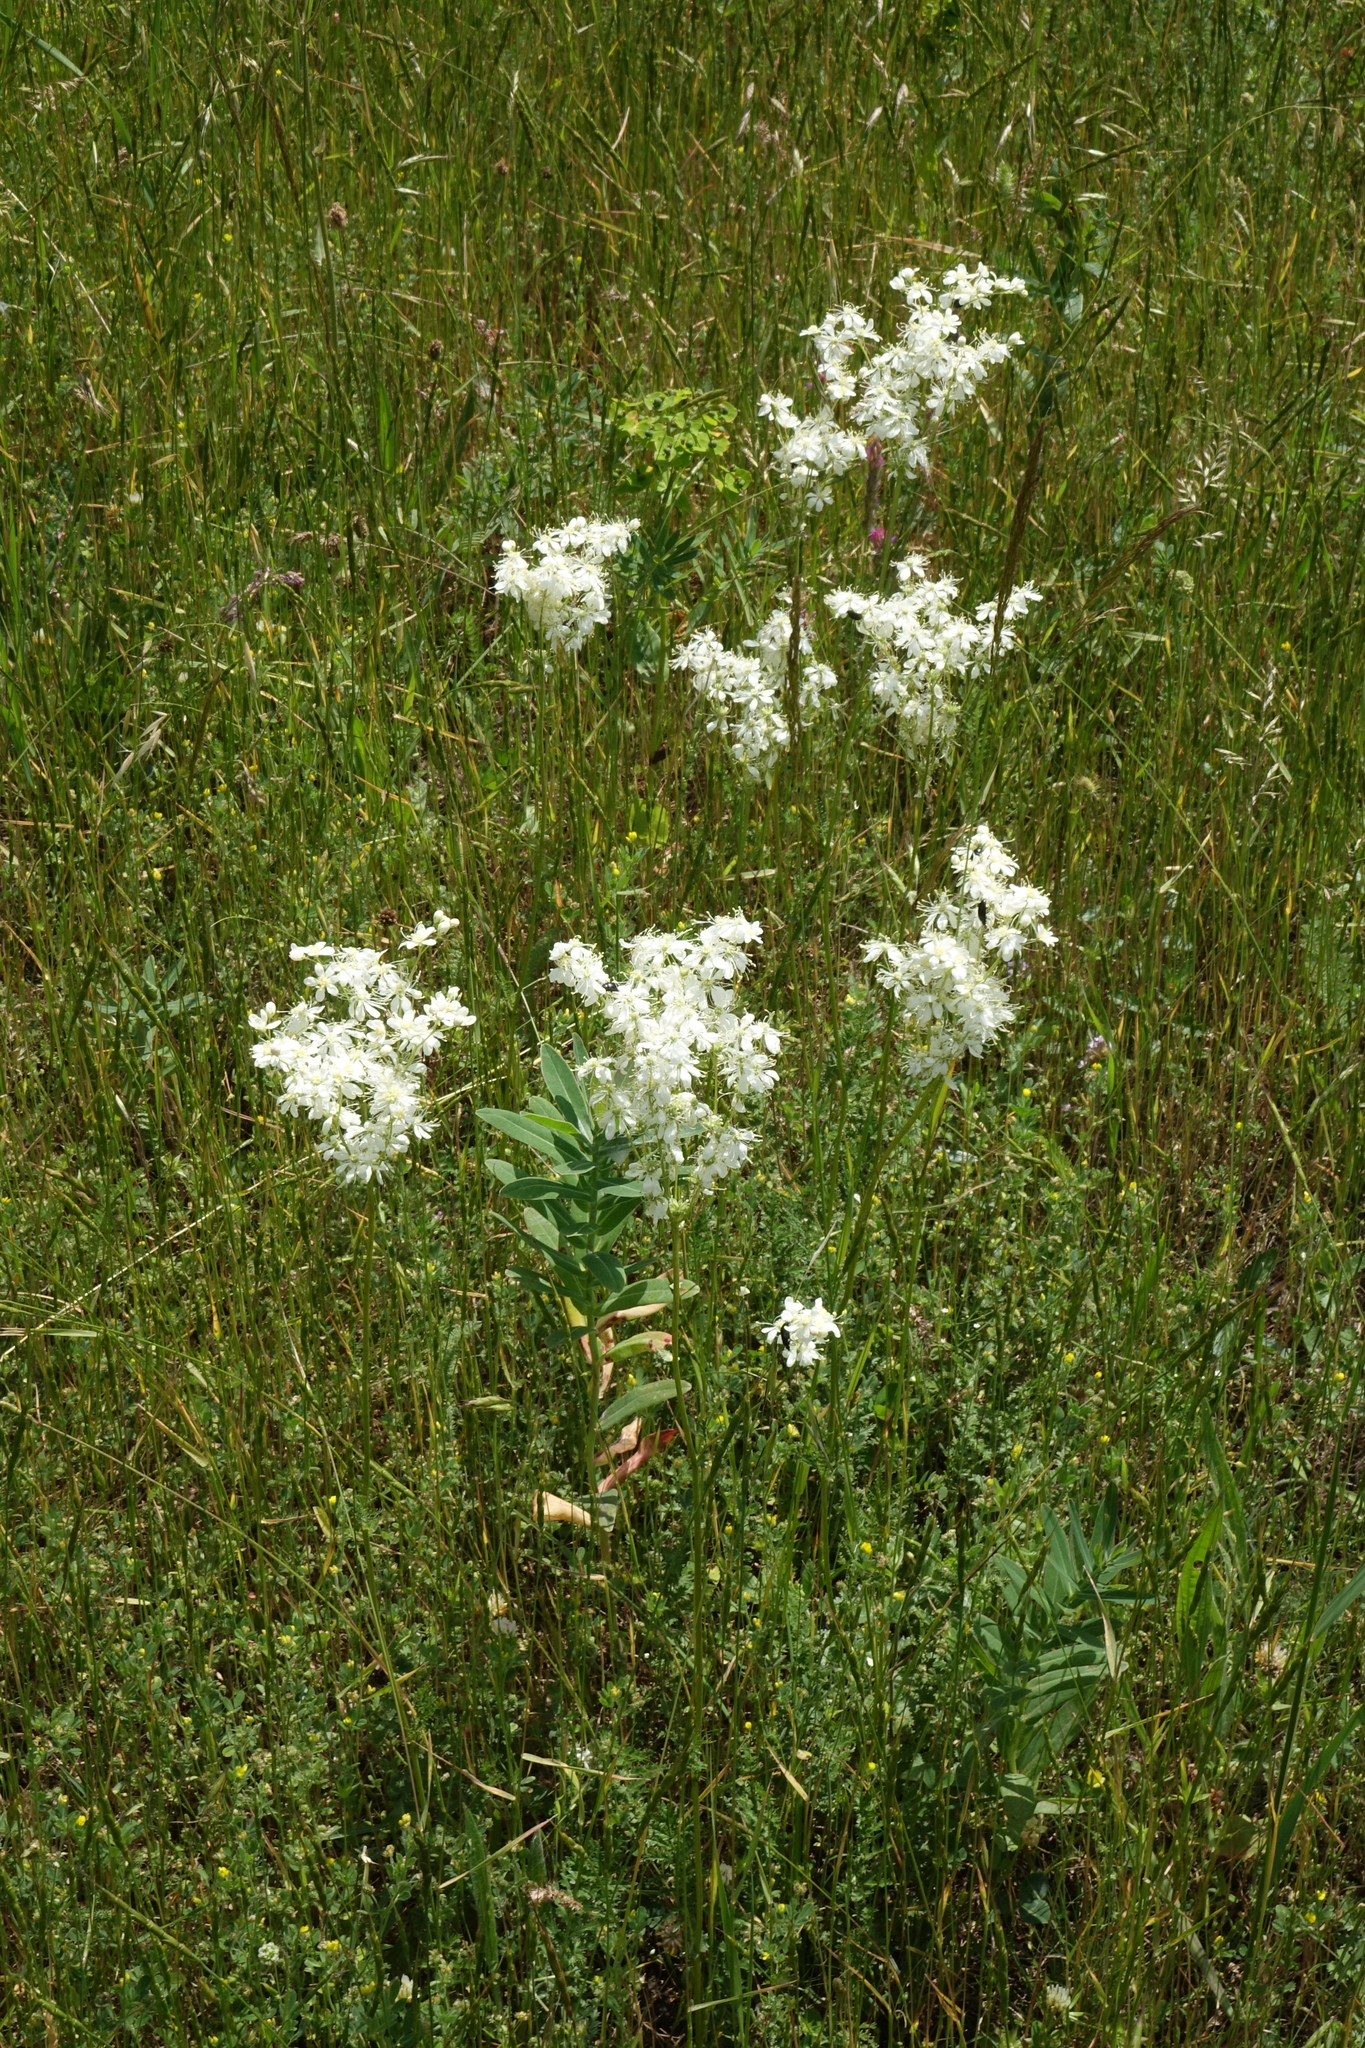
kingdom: Plantae
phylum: Tracheophyta
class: Magnoliopsida
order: Rosales
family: Rosaceae
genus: Filipendula
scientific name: Filipendula vulgaris
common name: Dropwort
